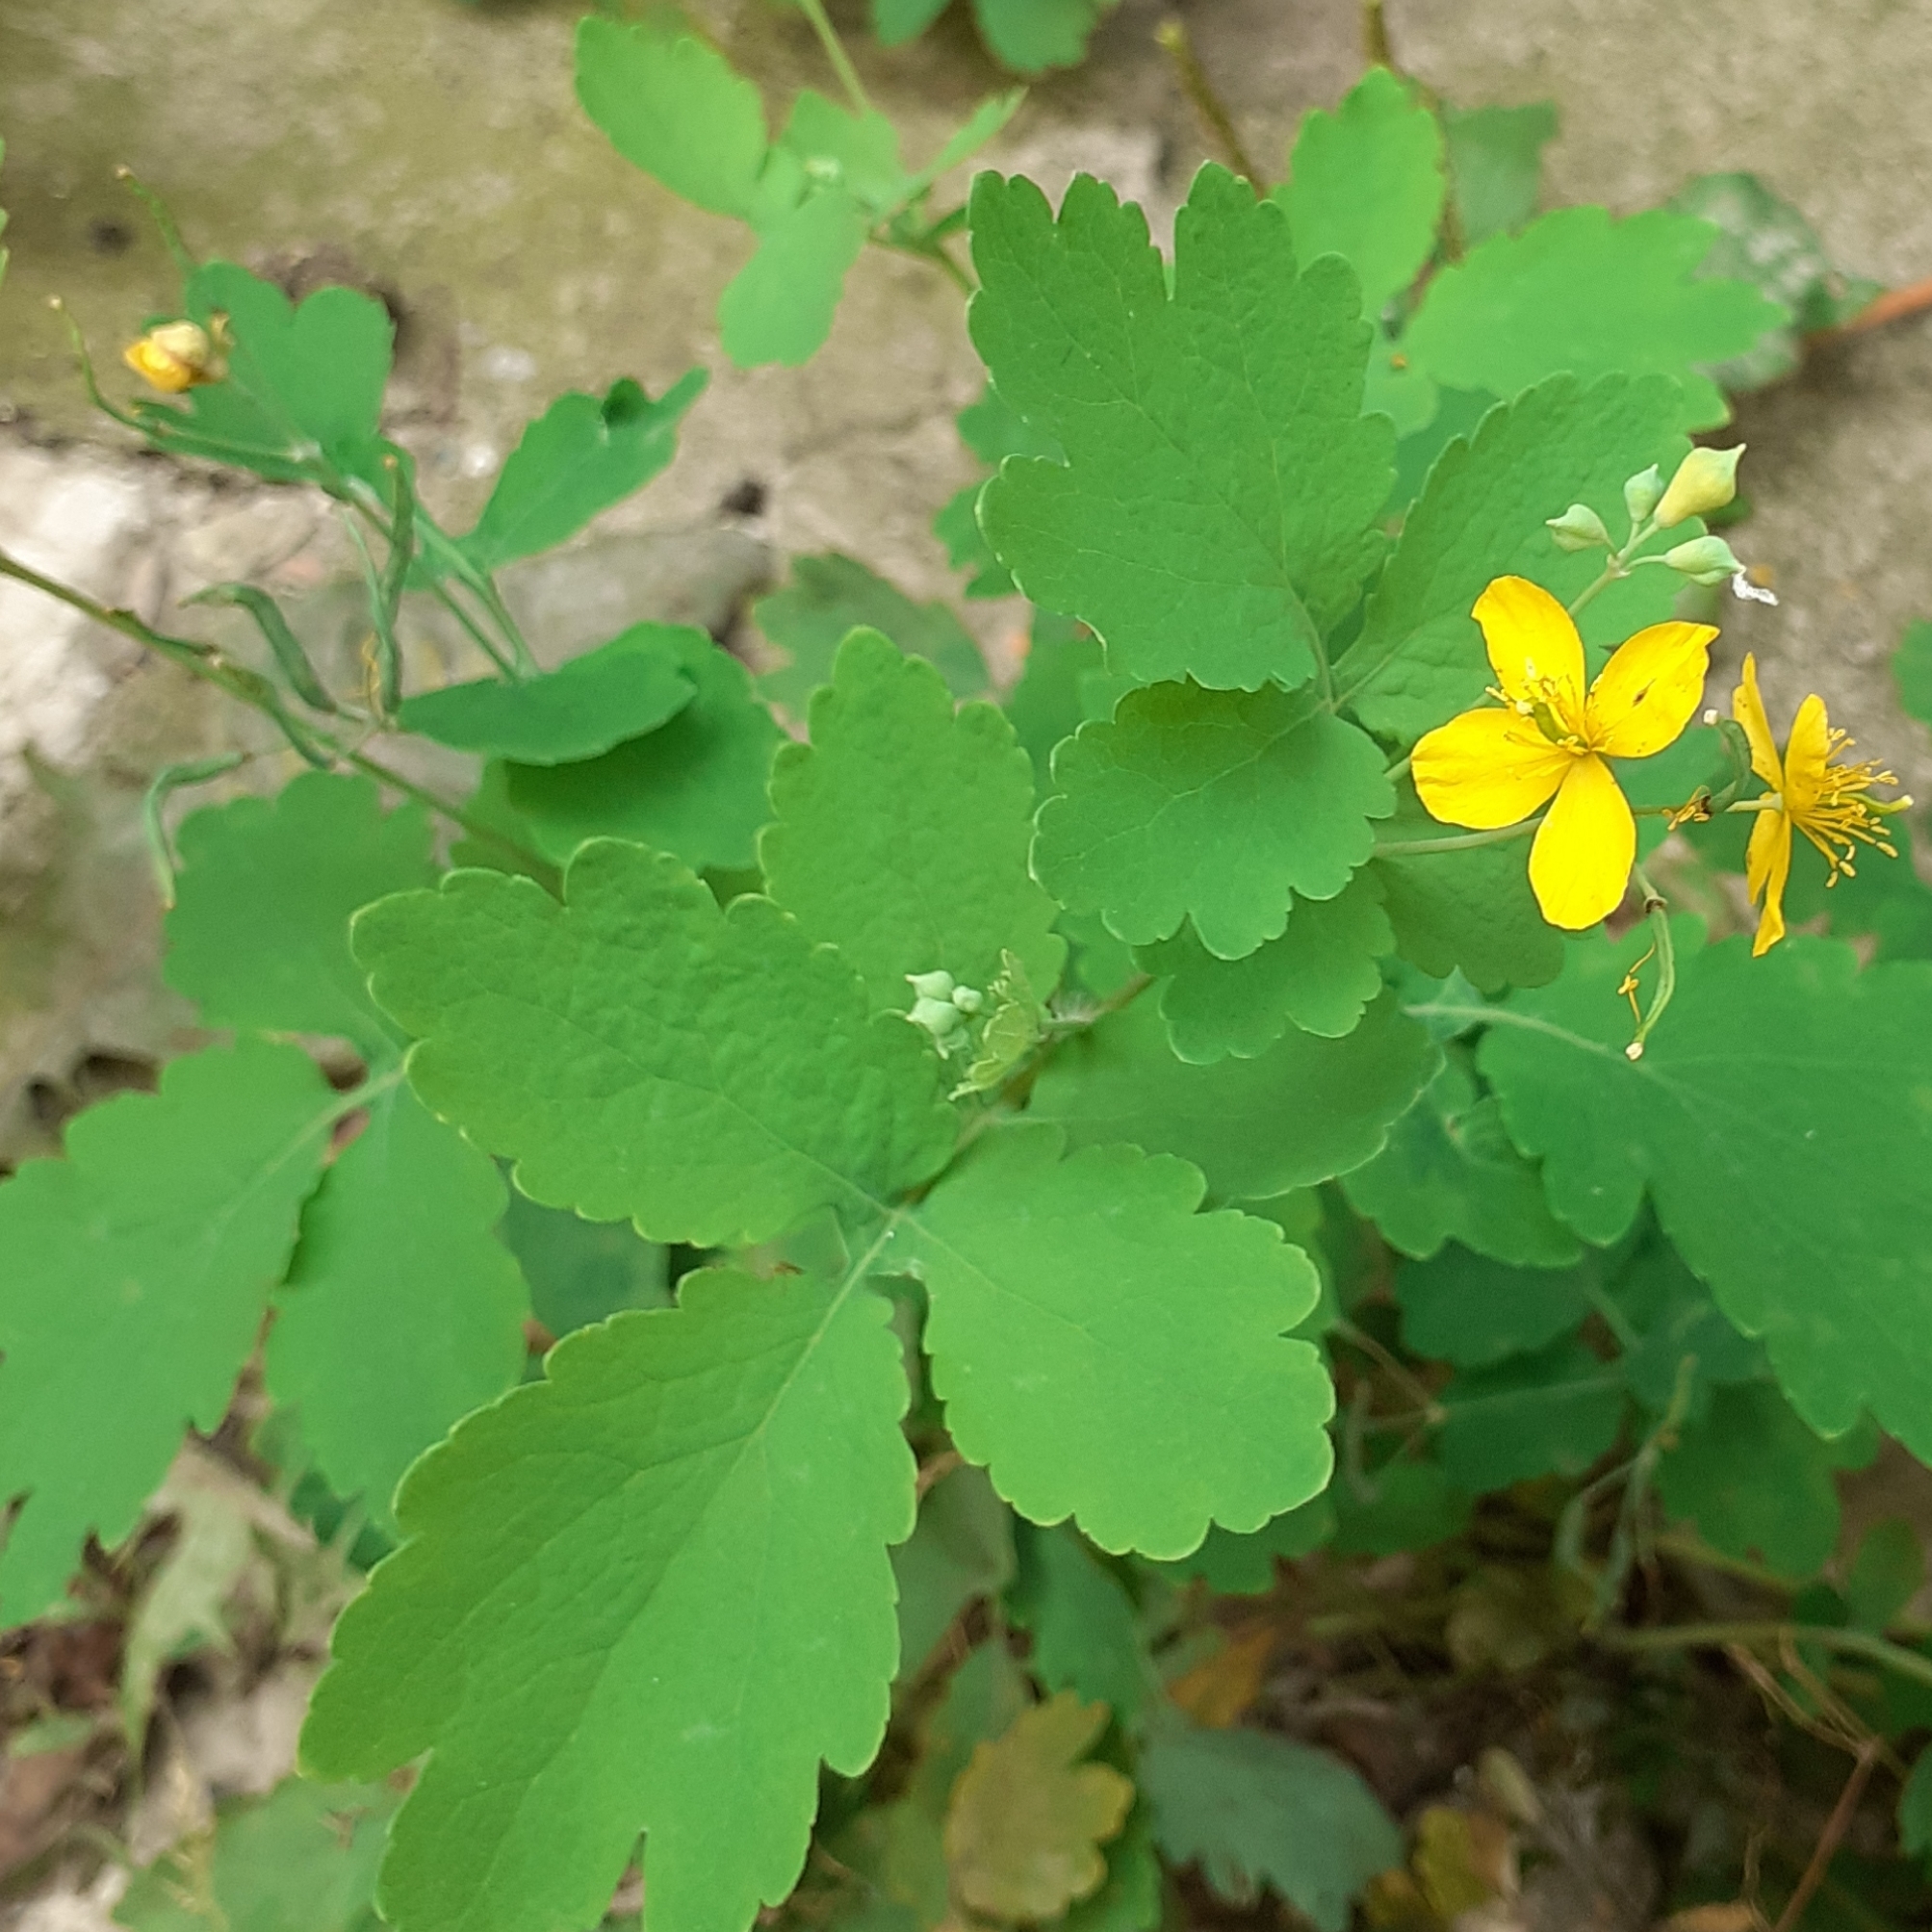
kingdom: Plantae
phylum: Tracheophyta
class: Magnoliopsida
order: Ranunculales
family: Papaveraceae
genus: Chelidonium
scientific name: Chelidonium majus
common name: Greater celandine
